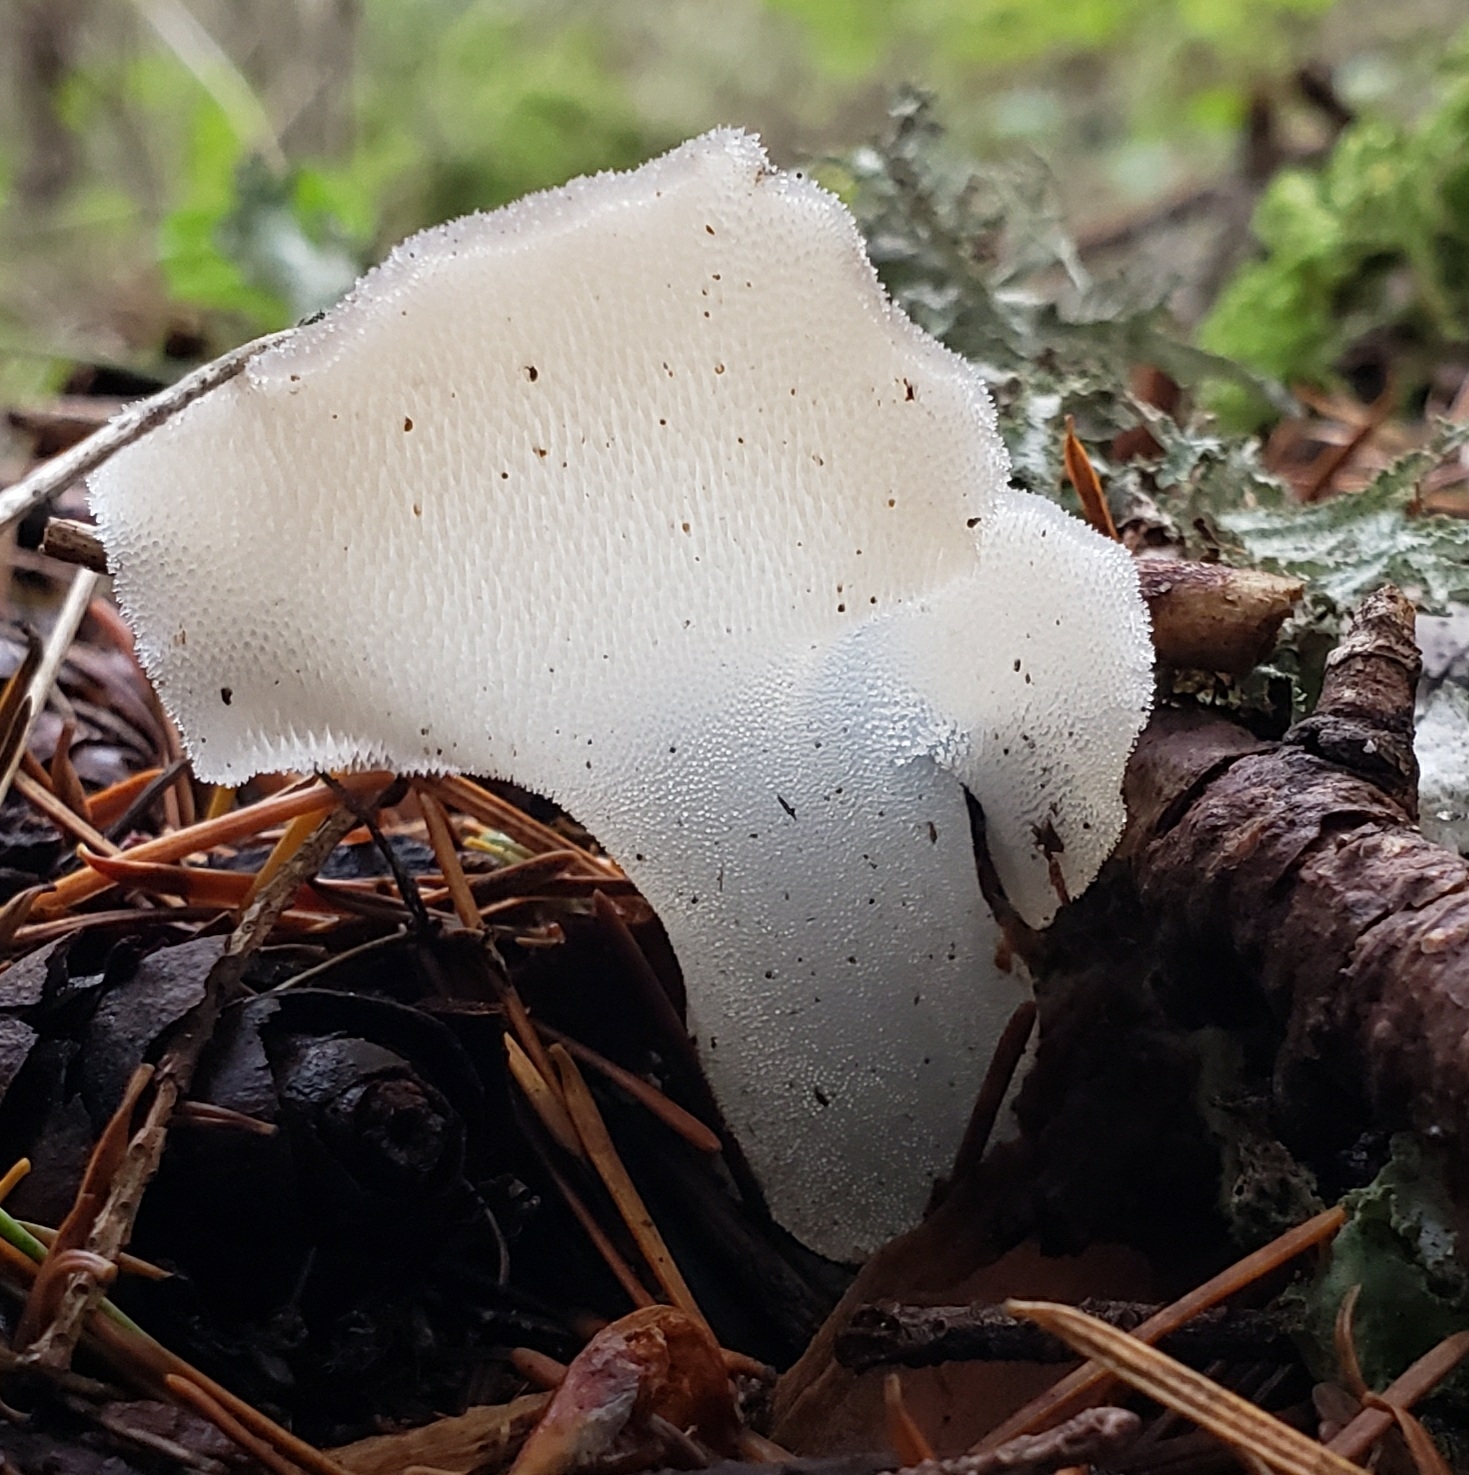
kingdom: Fungi
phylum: Basidiomycota
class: Agaricomycetes
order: Auriculariales
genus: Pseudohydnum
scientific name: Pseudohydnum gelatinosum
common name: Jelly tongue
